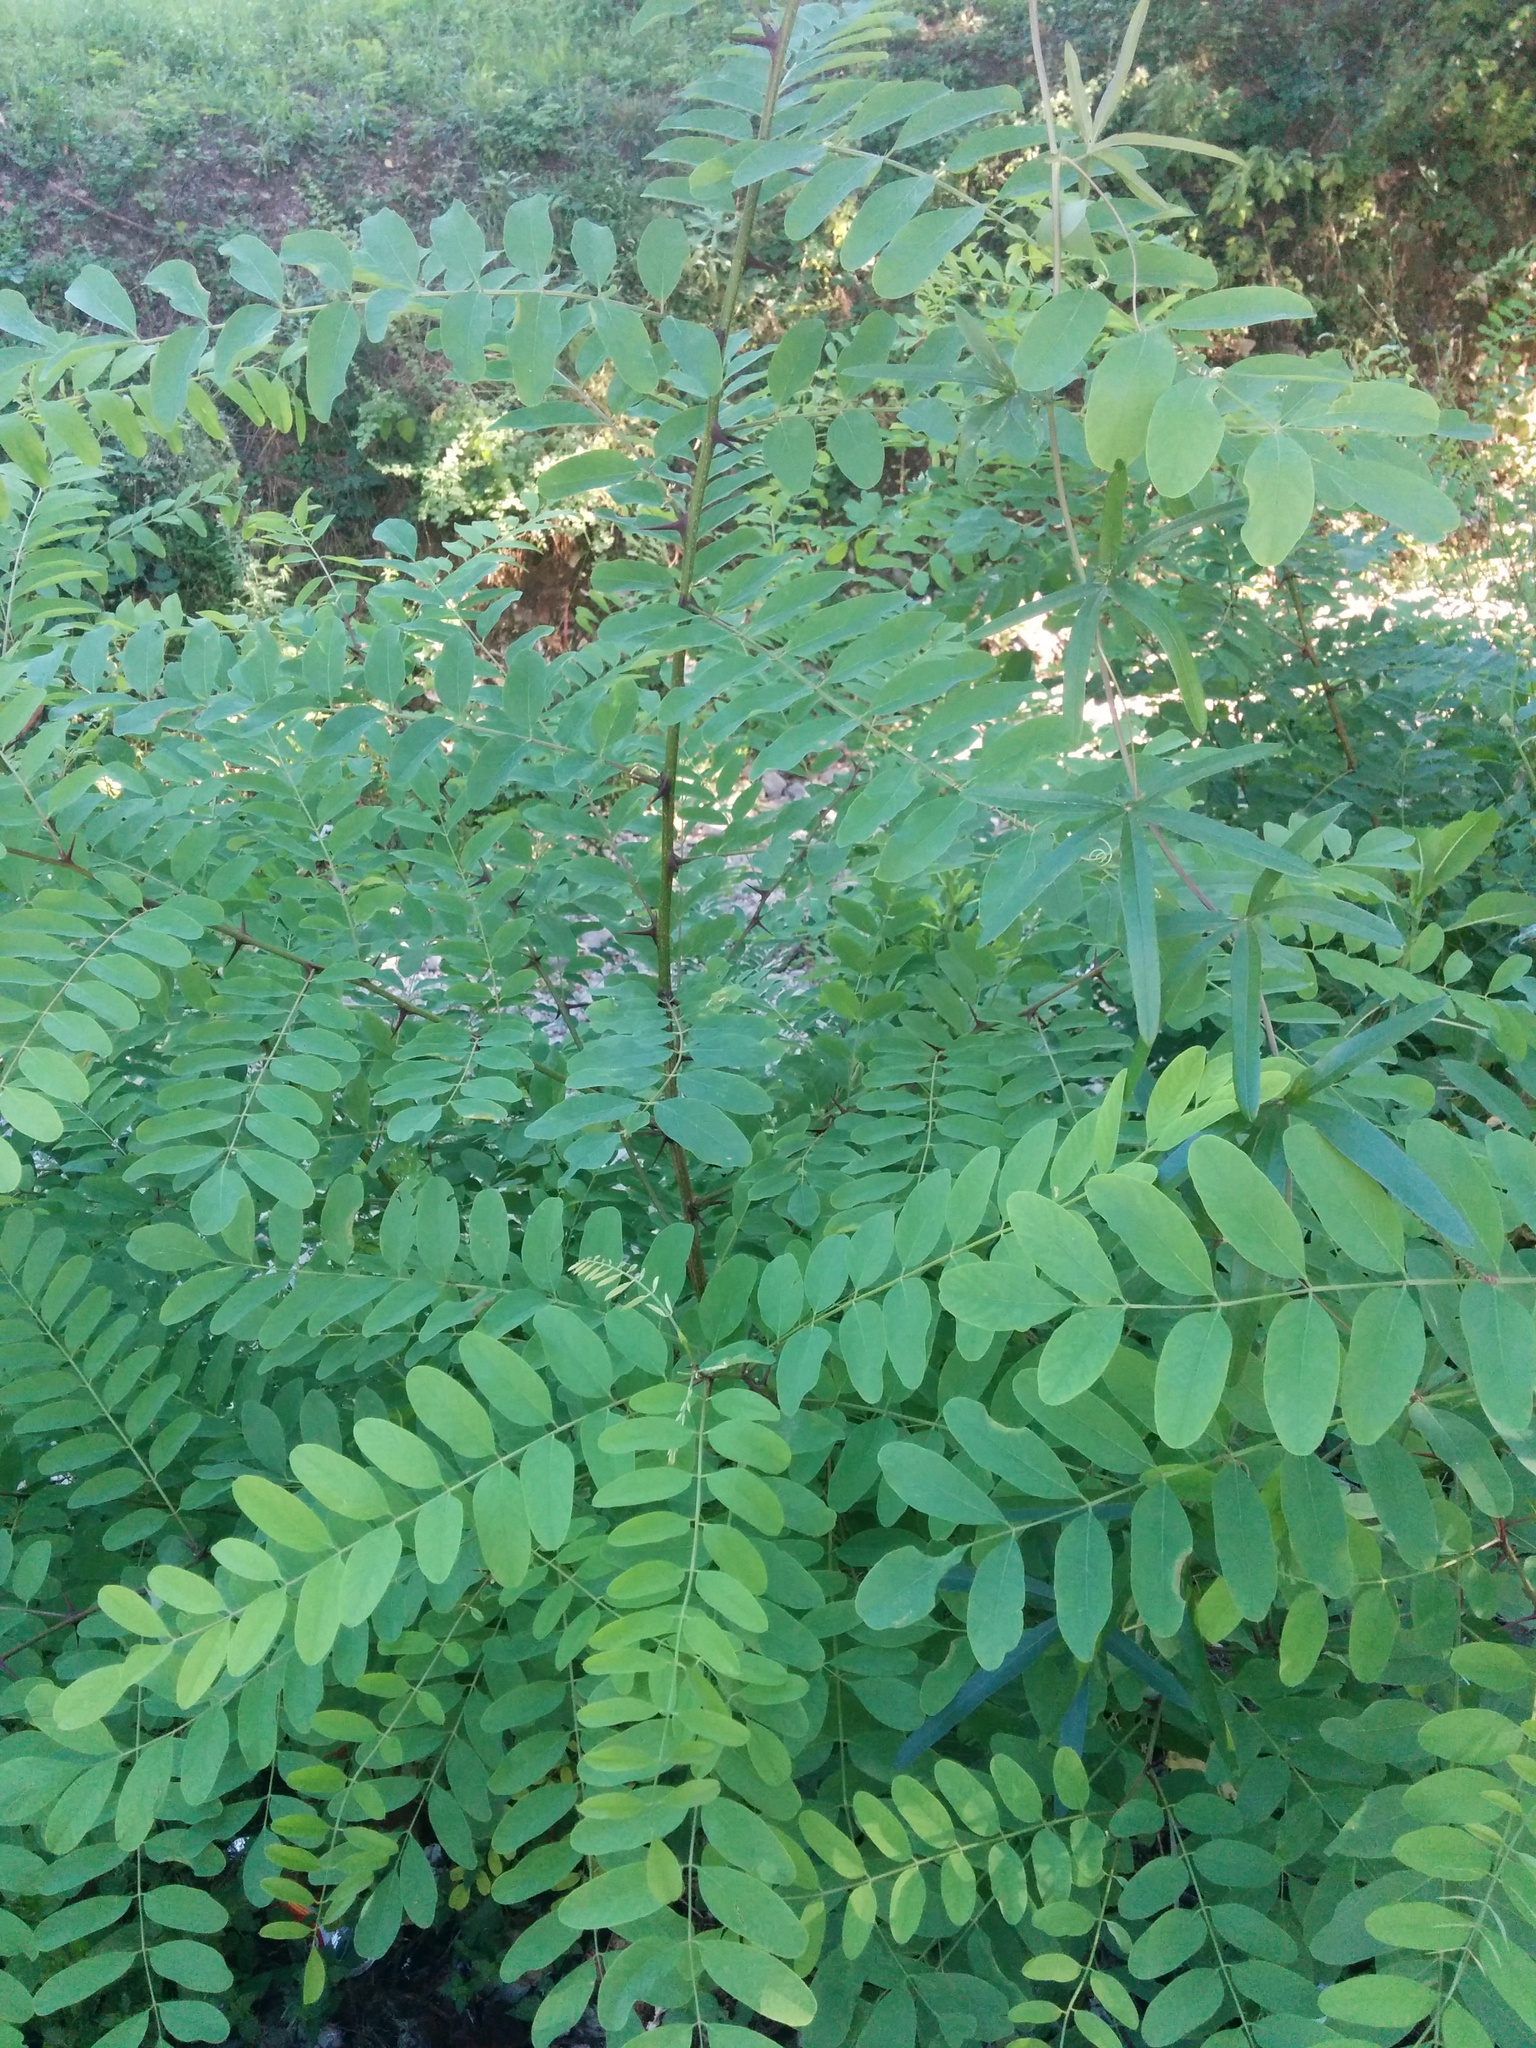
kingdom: Plantae
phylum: Tracheophyta
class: Magnoliopsida
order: Fabales
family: Fabaceae
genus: Robinia
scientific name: Robinia pseudoacacia
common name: Black locust
